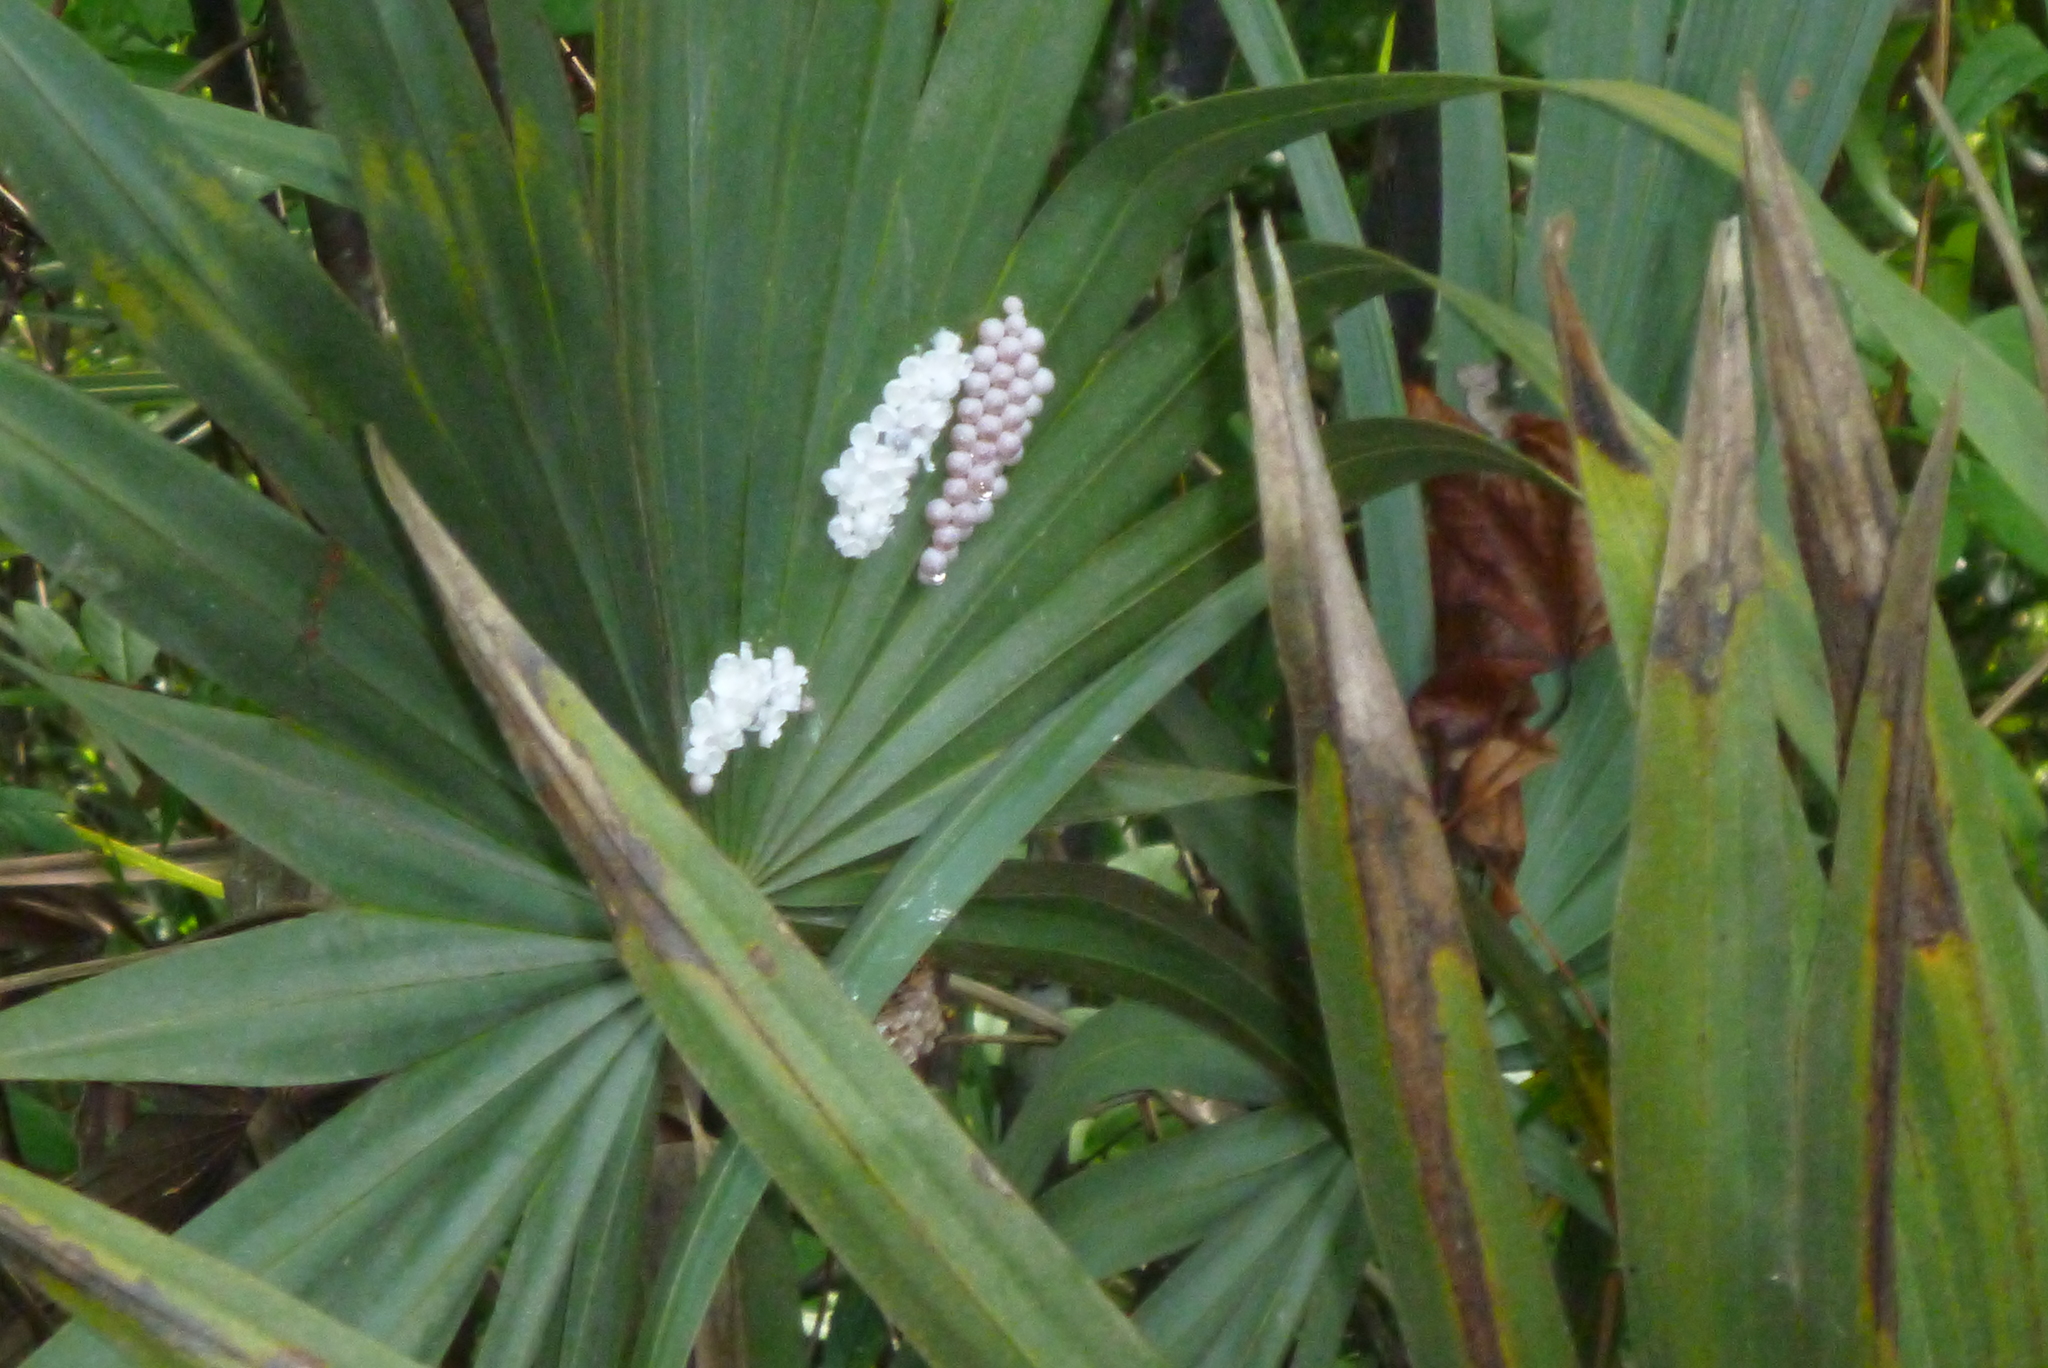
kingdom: Animalia
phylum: Mollusca
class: Gastropoda
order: Architaenioglossa
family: Ampullariidae
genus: Pomacea
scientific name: Pomacea paludosa
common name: Florida applesnail
